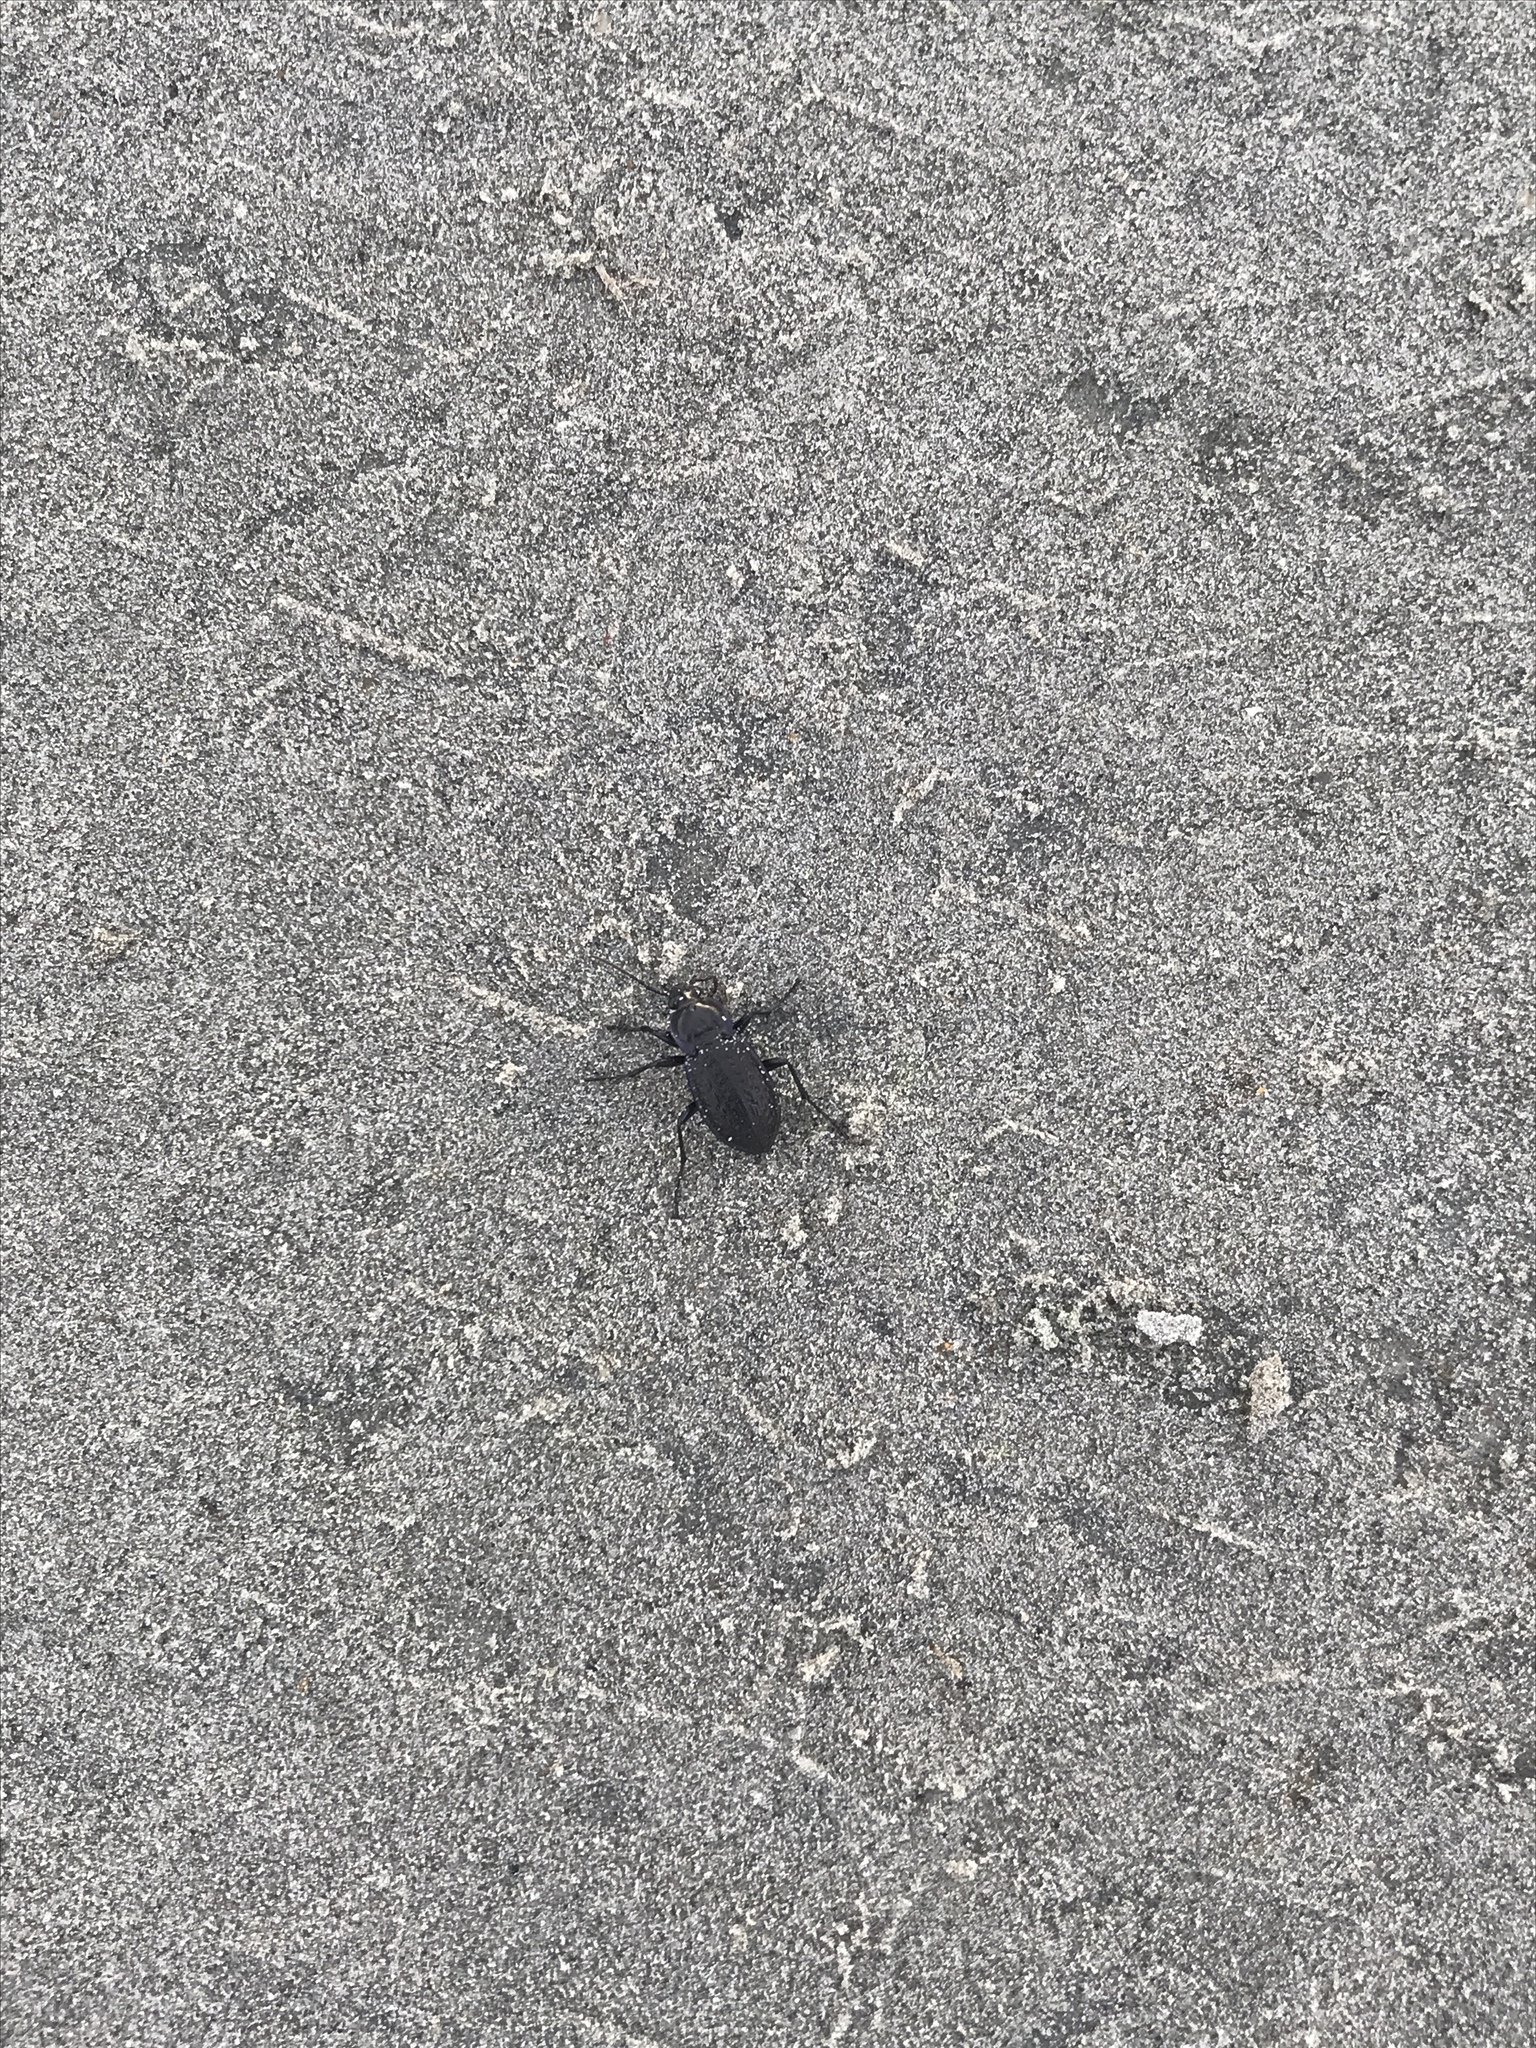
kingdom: Animalia
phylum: Arthropoda
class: Insecta
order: Coleoptera
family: Carabidae
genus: Carabus
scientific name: Carabus serratus
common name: Serrate-shoulder worm and slug hunter
